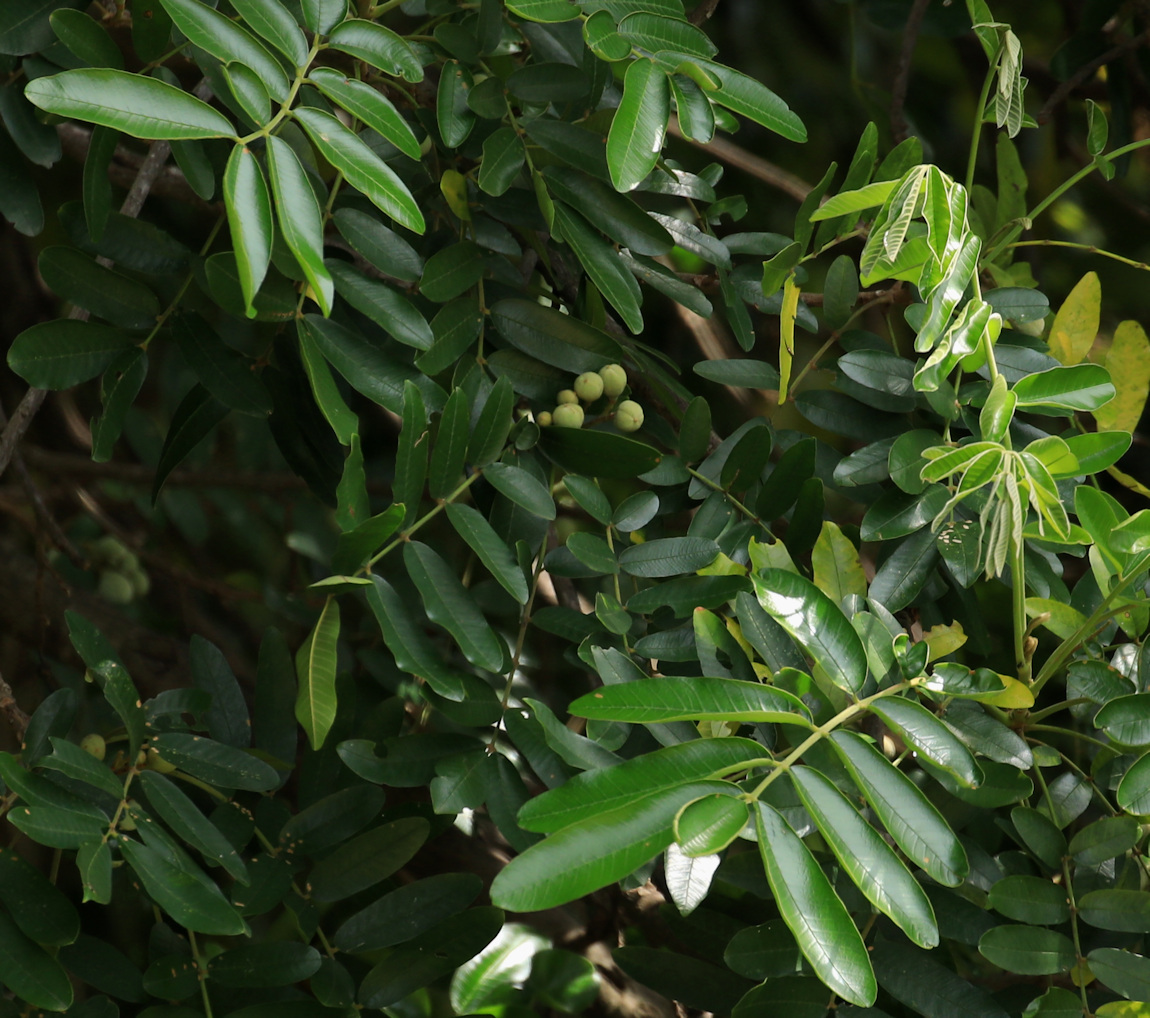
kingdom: Plantae
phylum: Tracheophyta
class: Magnoliopsida
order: Sapindales
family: Meliaceae
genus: Trichilia
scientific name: Trichilia emetica
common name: Christmas-bells
